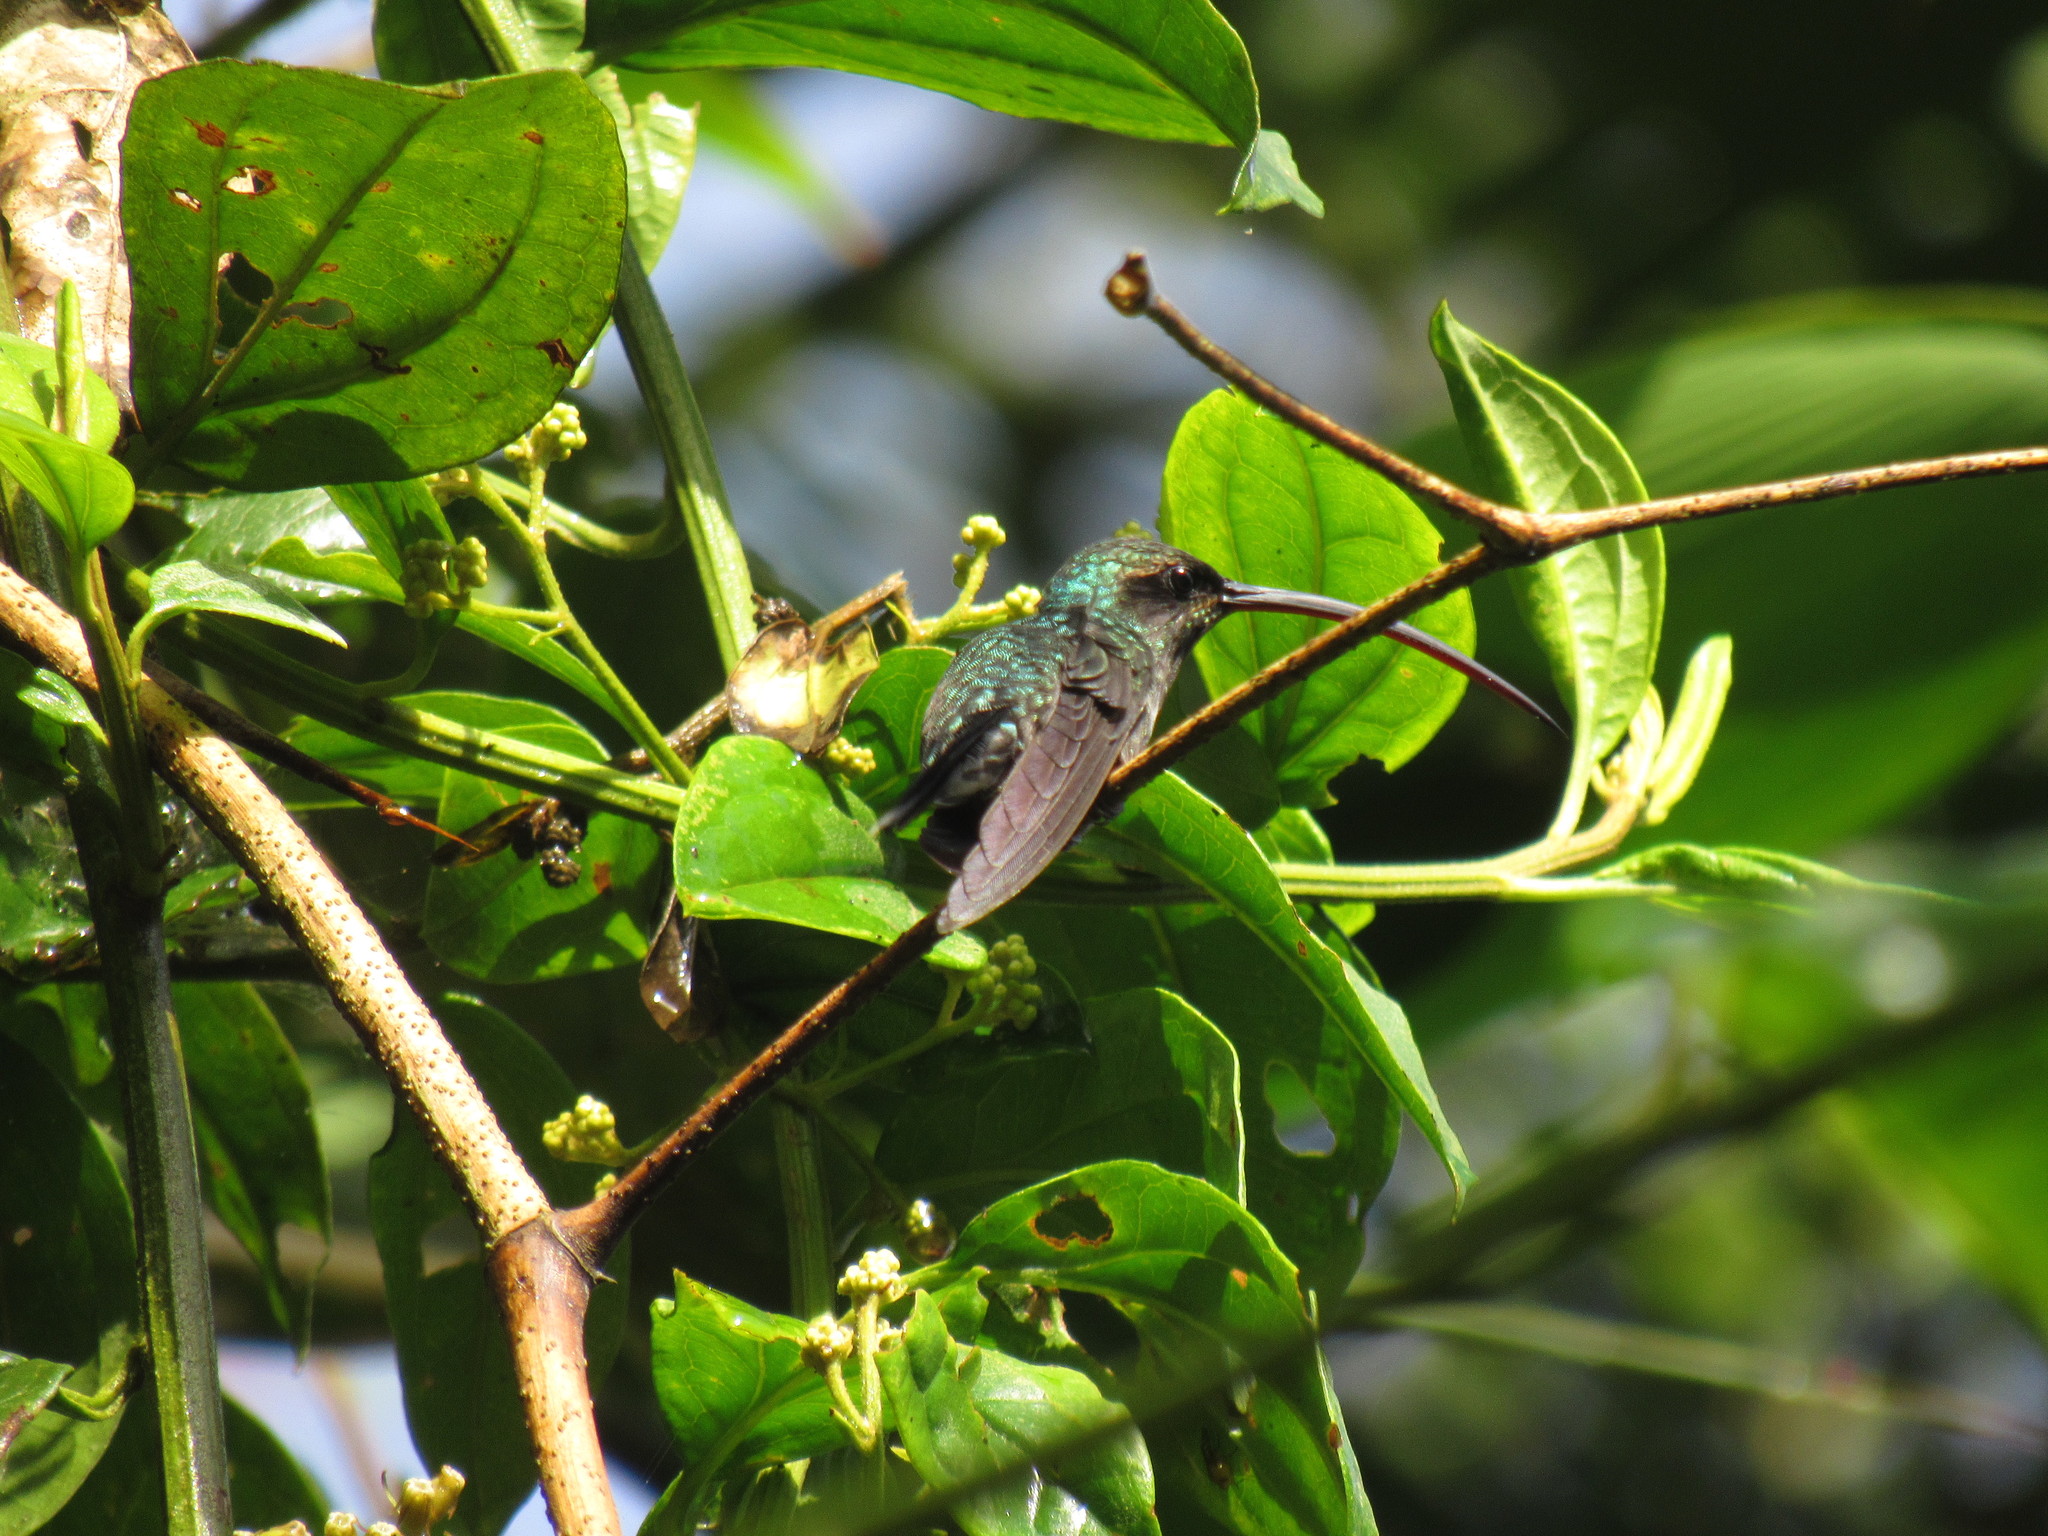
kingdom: Animalia
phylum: Chordata
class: Aves
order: Apodiformes
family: Trochilidae
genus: Phaethornis
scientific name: Phaethornis guy
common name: Green hermit
